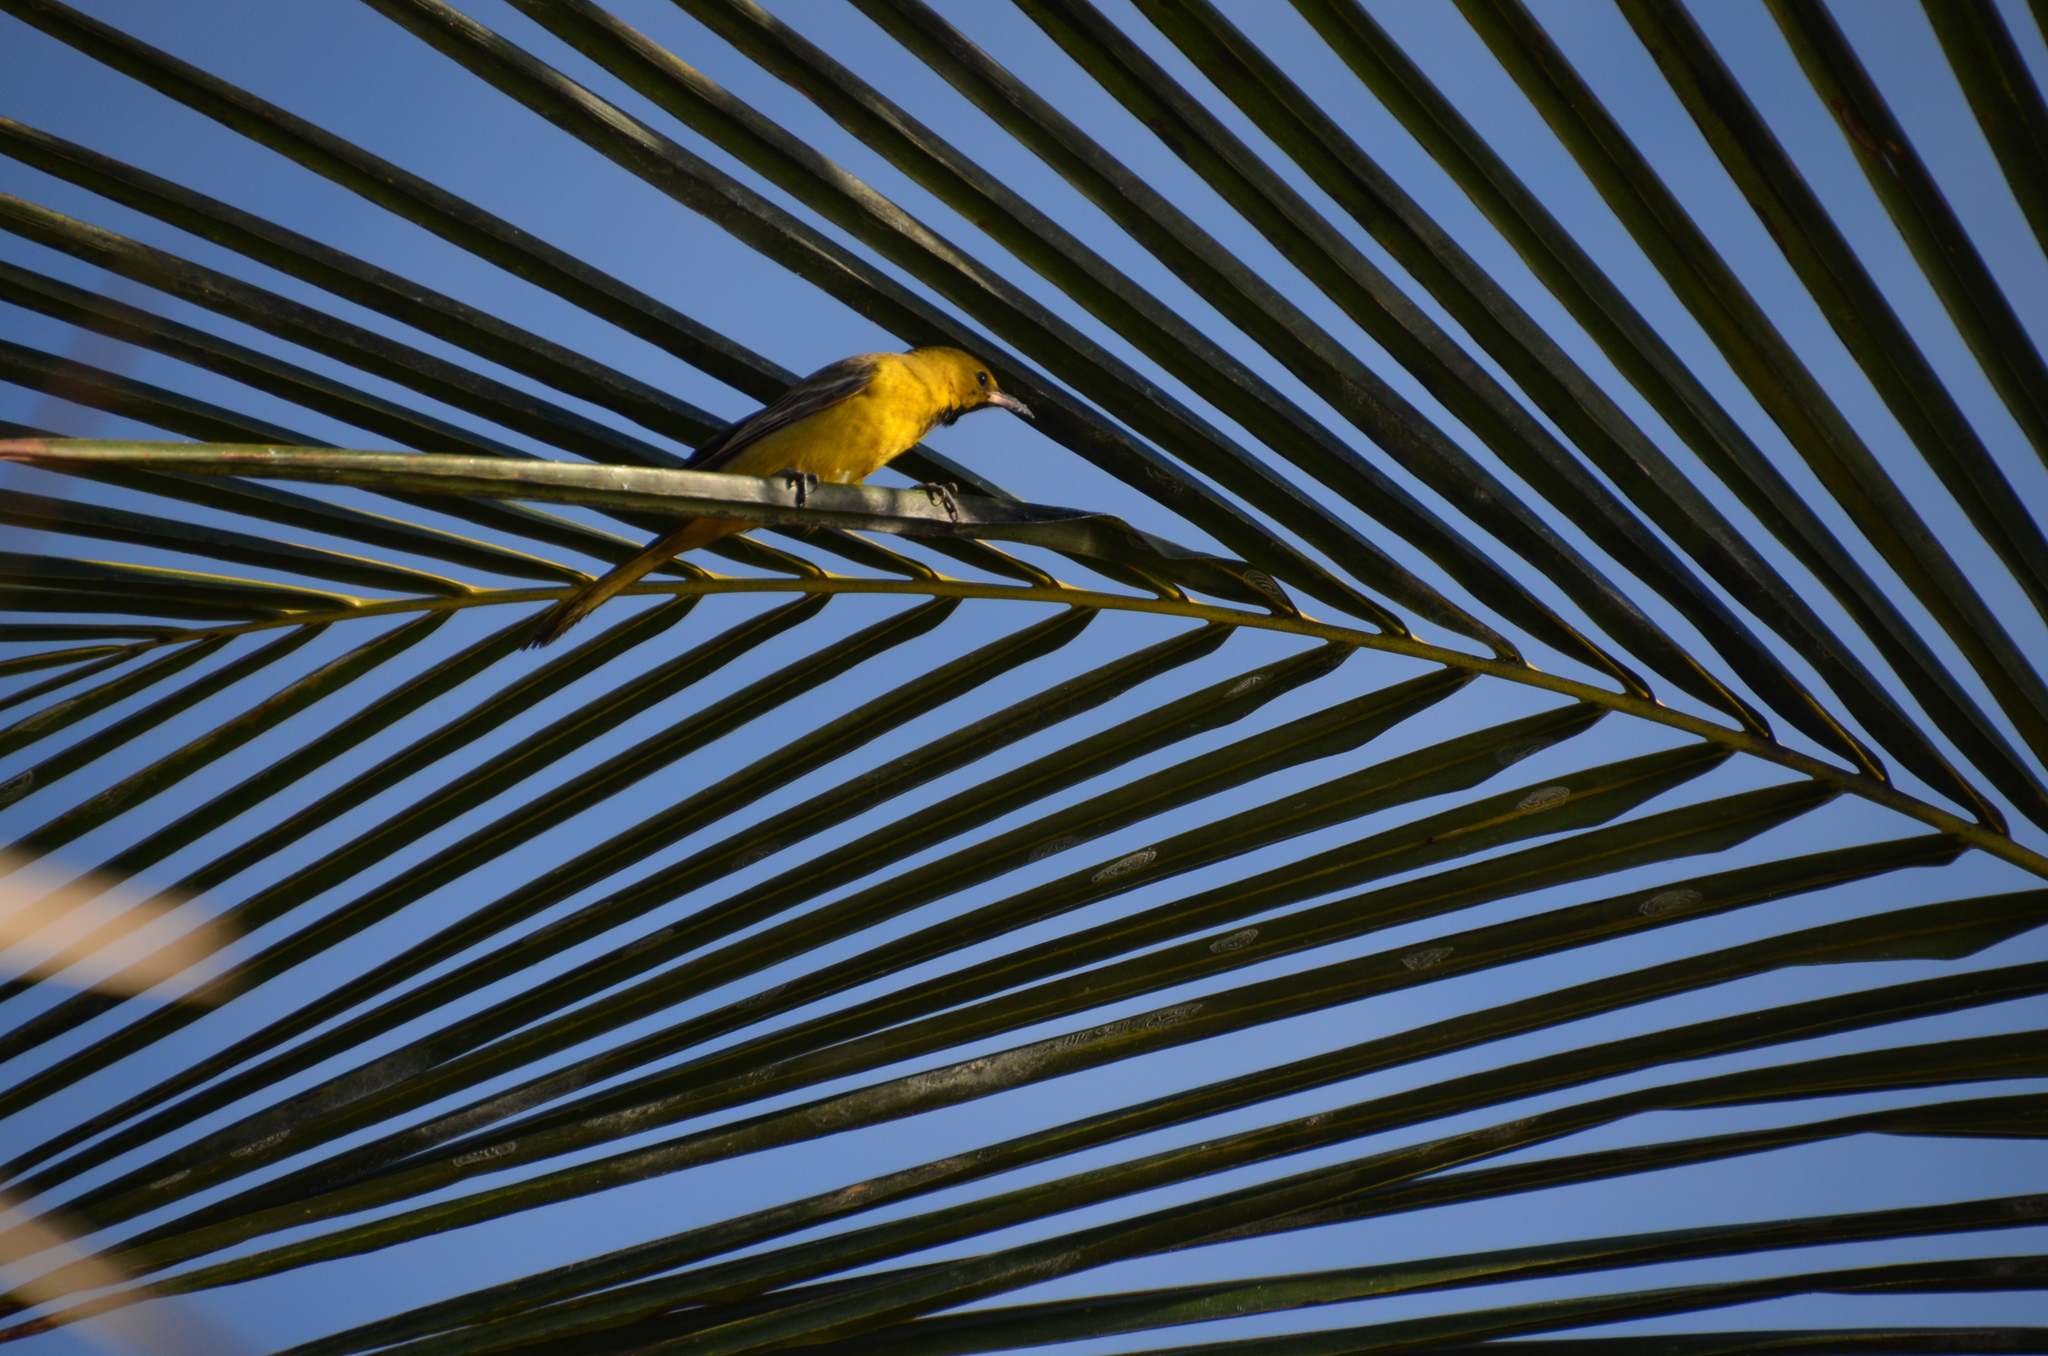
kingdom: Animalia
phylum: Chordata
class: Aves
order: Passeriformes
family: Icteridae
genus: Icterus
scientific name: Icterus cucullatus
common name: Hooded oriole
